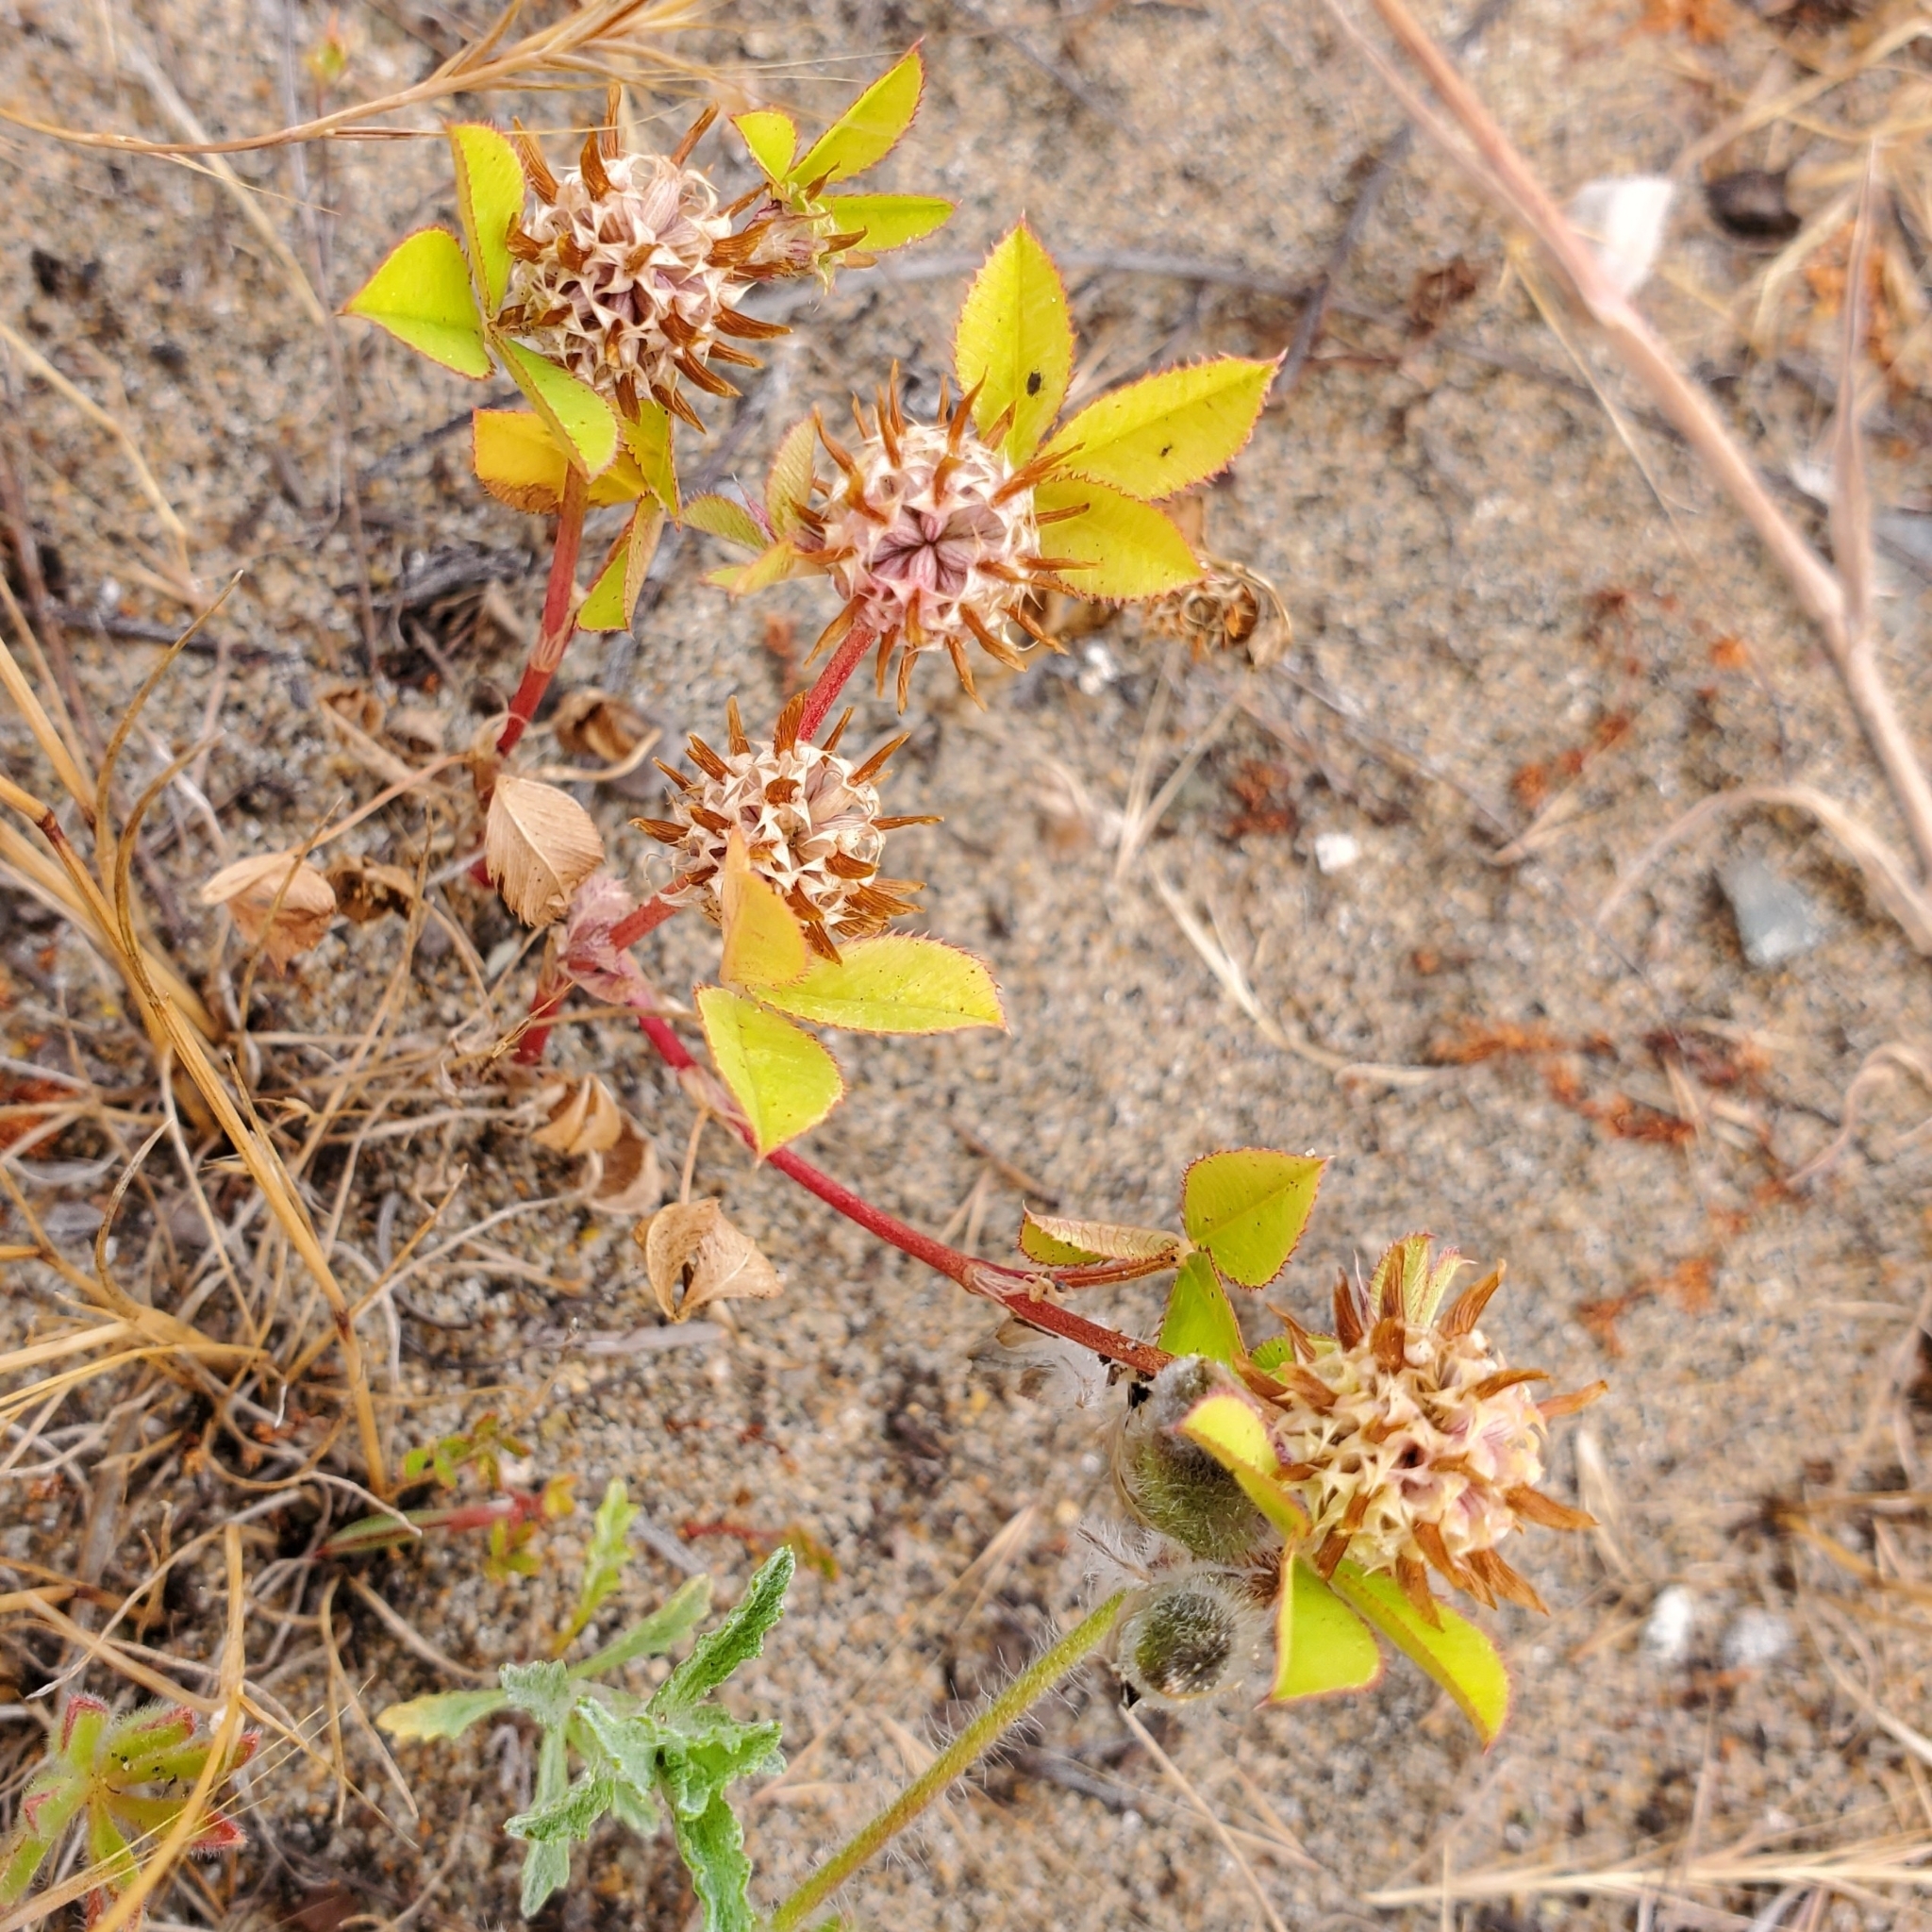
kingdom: Plantae
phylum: Tracheophyta
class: Magnoliopsida
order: Fabales
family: Fabaceae
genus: Trifolium
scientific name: Trifolium glomeratum
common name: Clustered clover
